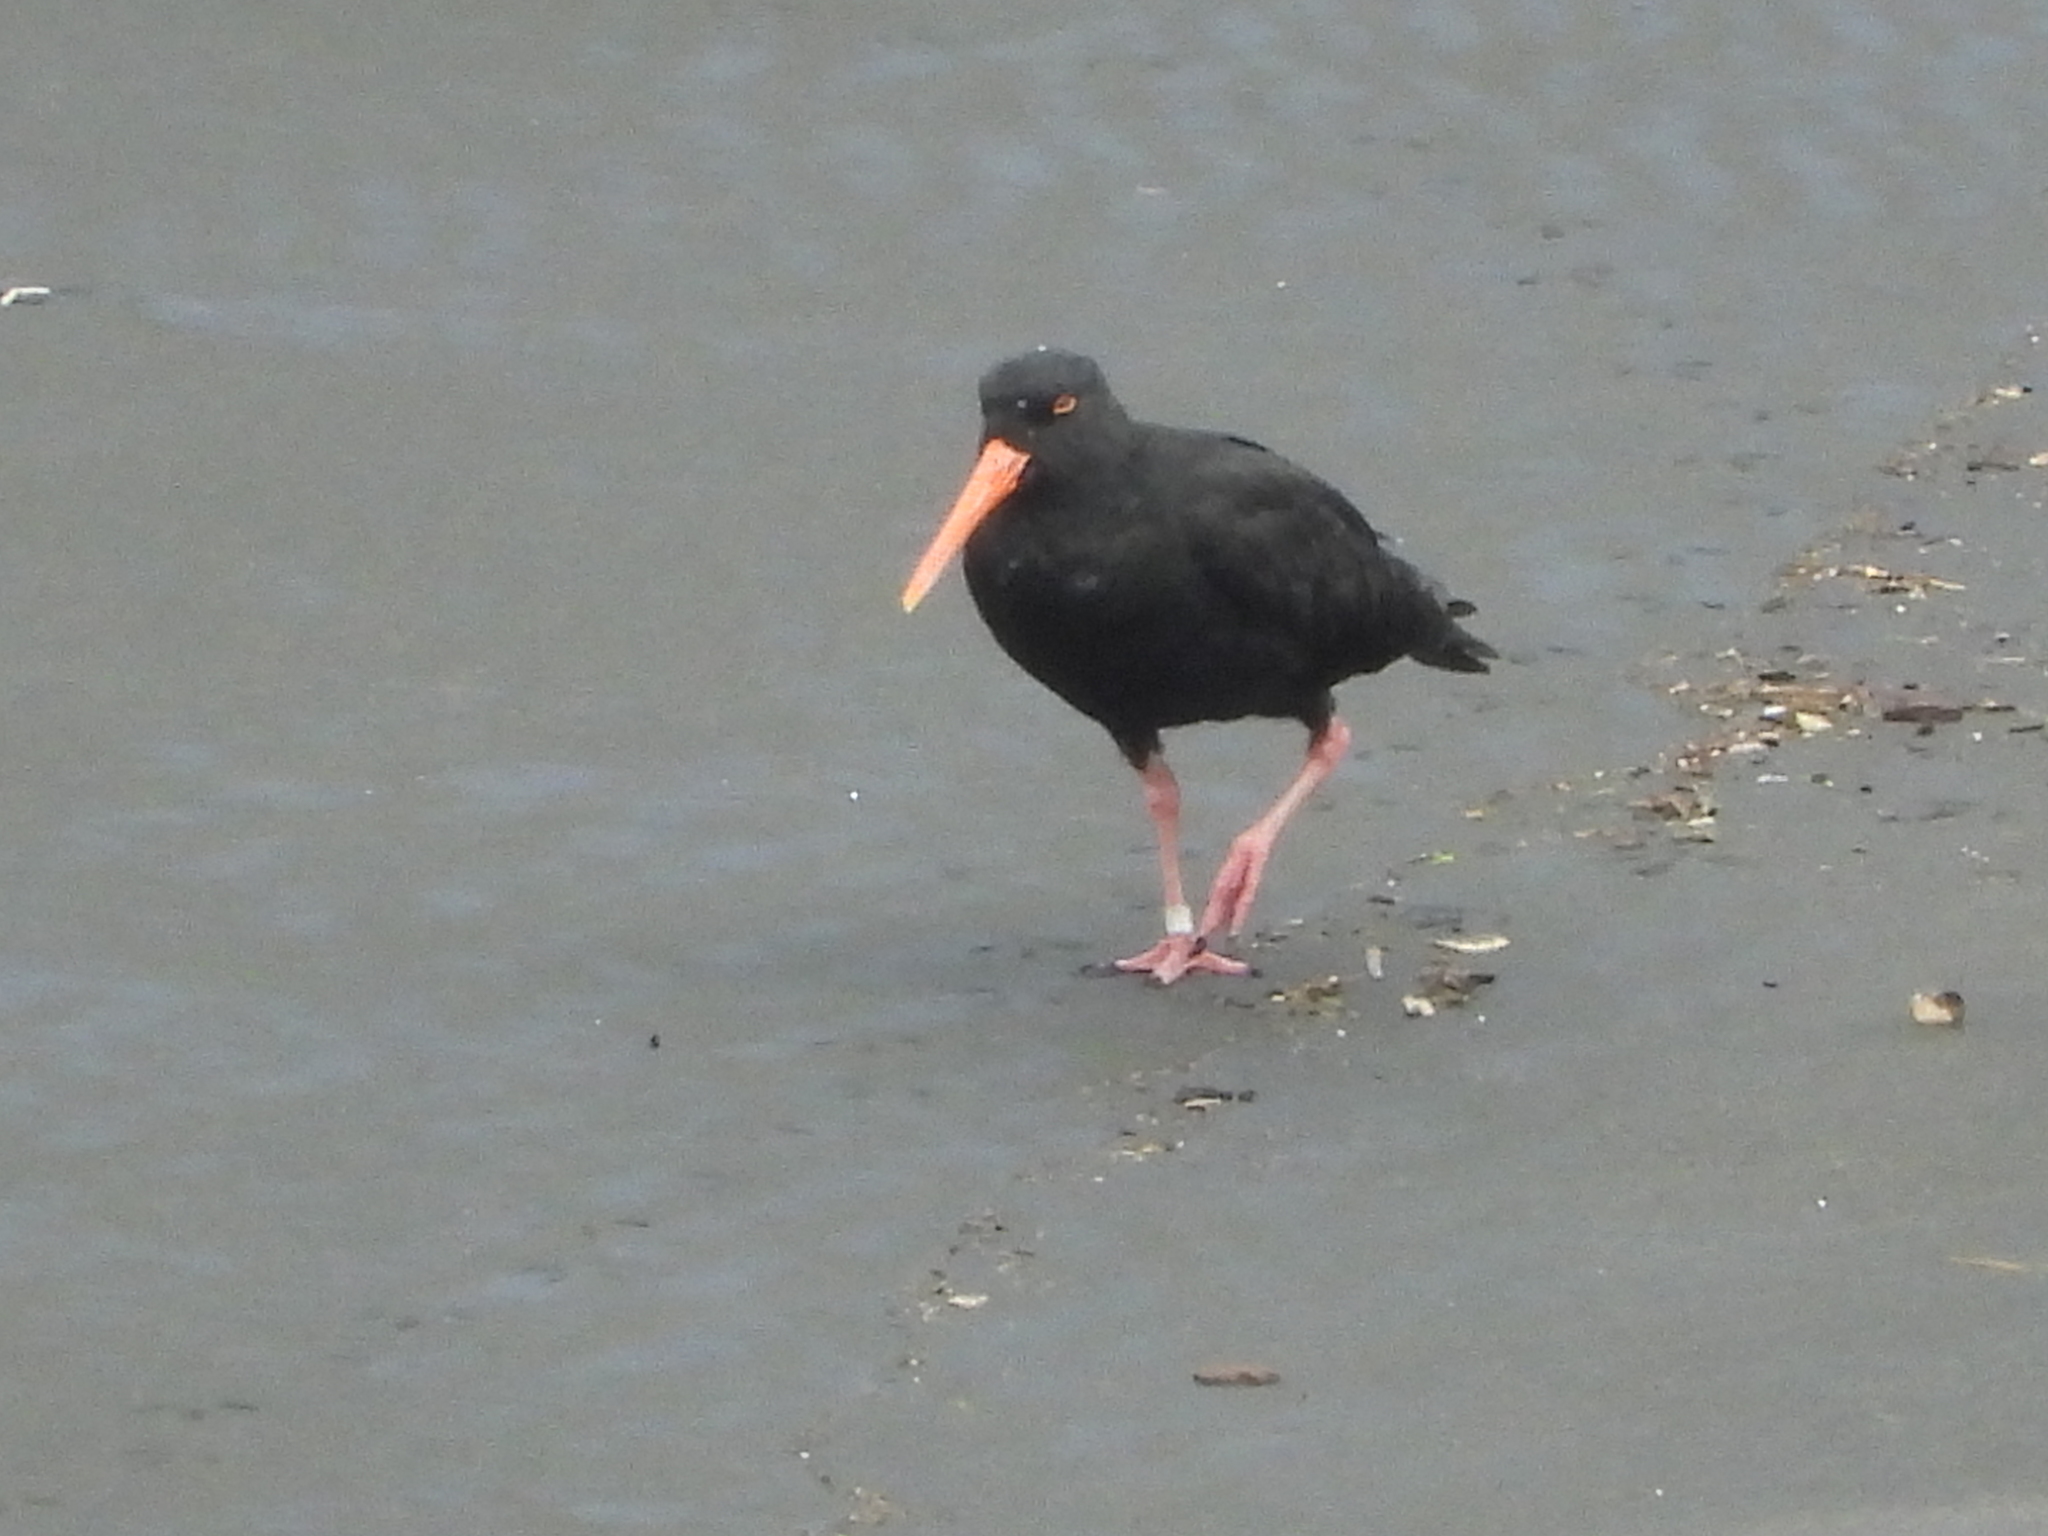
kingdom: Animalia
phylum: Chordata
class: Aves
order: Charadriiformes
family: Haematopodidae
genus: Haematopus
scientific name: Haematopus unicolor
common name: Variable oystercatcher
